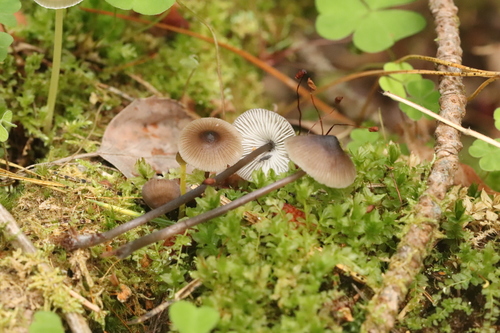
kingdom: Fungi
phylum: Basidiomycota
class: Agaricomycetes
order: Agaricales
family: Mycenaceae
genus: Mycena
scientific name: Mycena algeriensis
